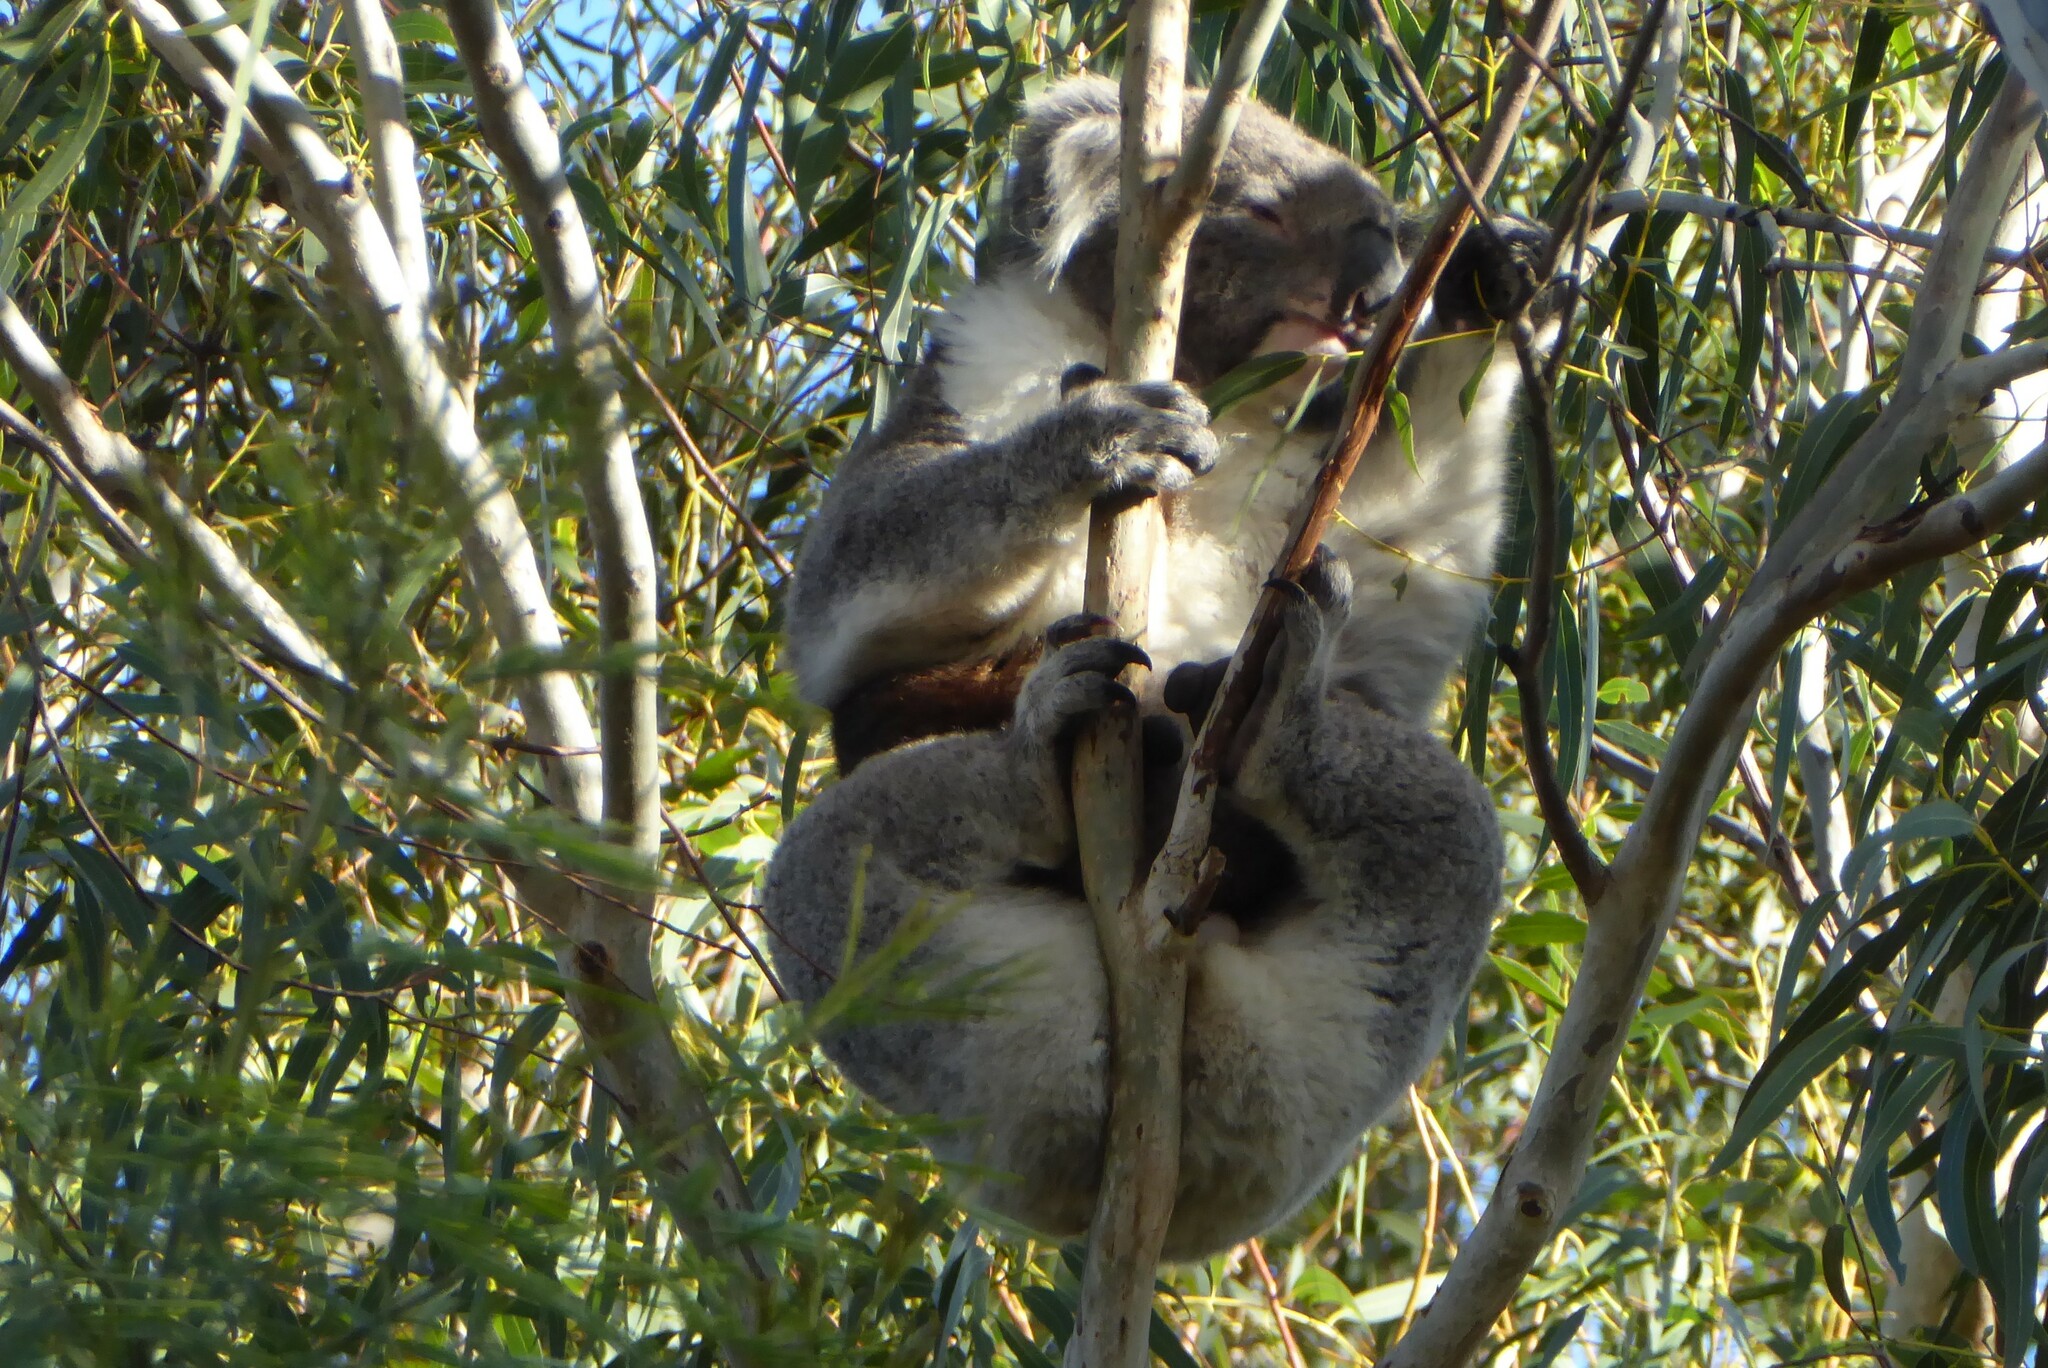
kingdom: Animalia
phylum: Chordata
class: Mammalia
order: Diprotodontia
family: Phascolarctidae
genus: Phascolarctos
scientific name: Phascolarctos cinereus
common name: Koala
